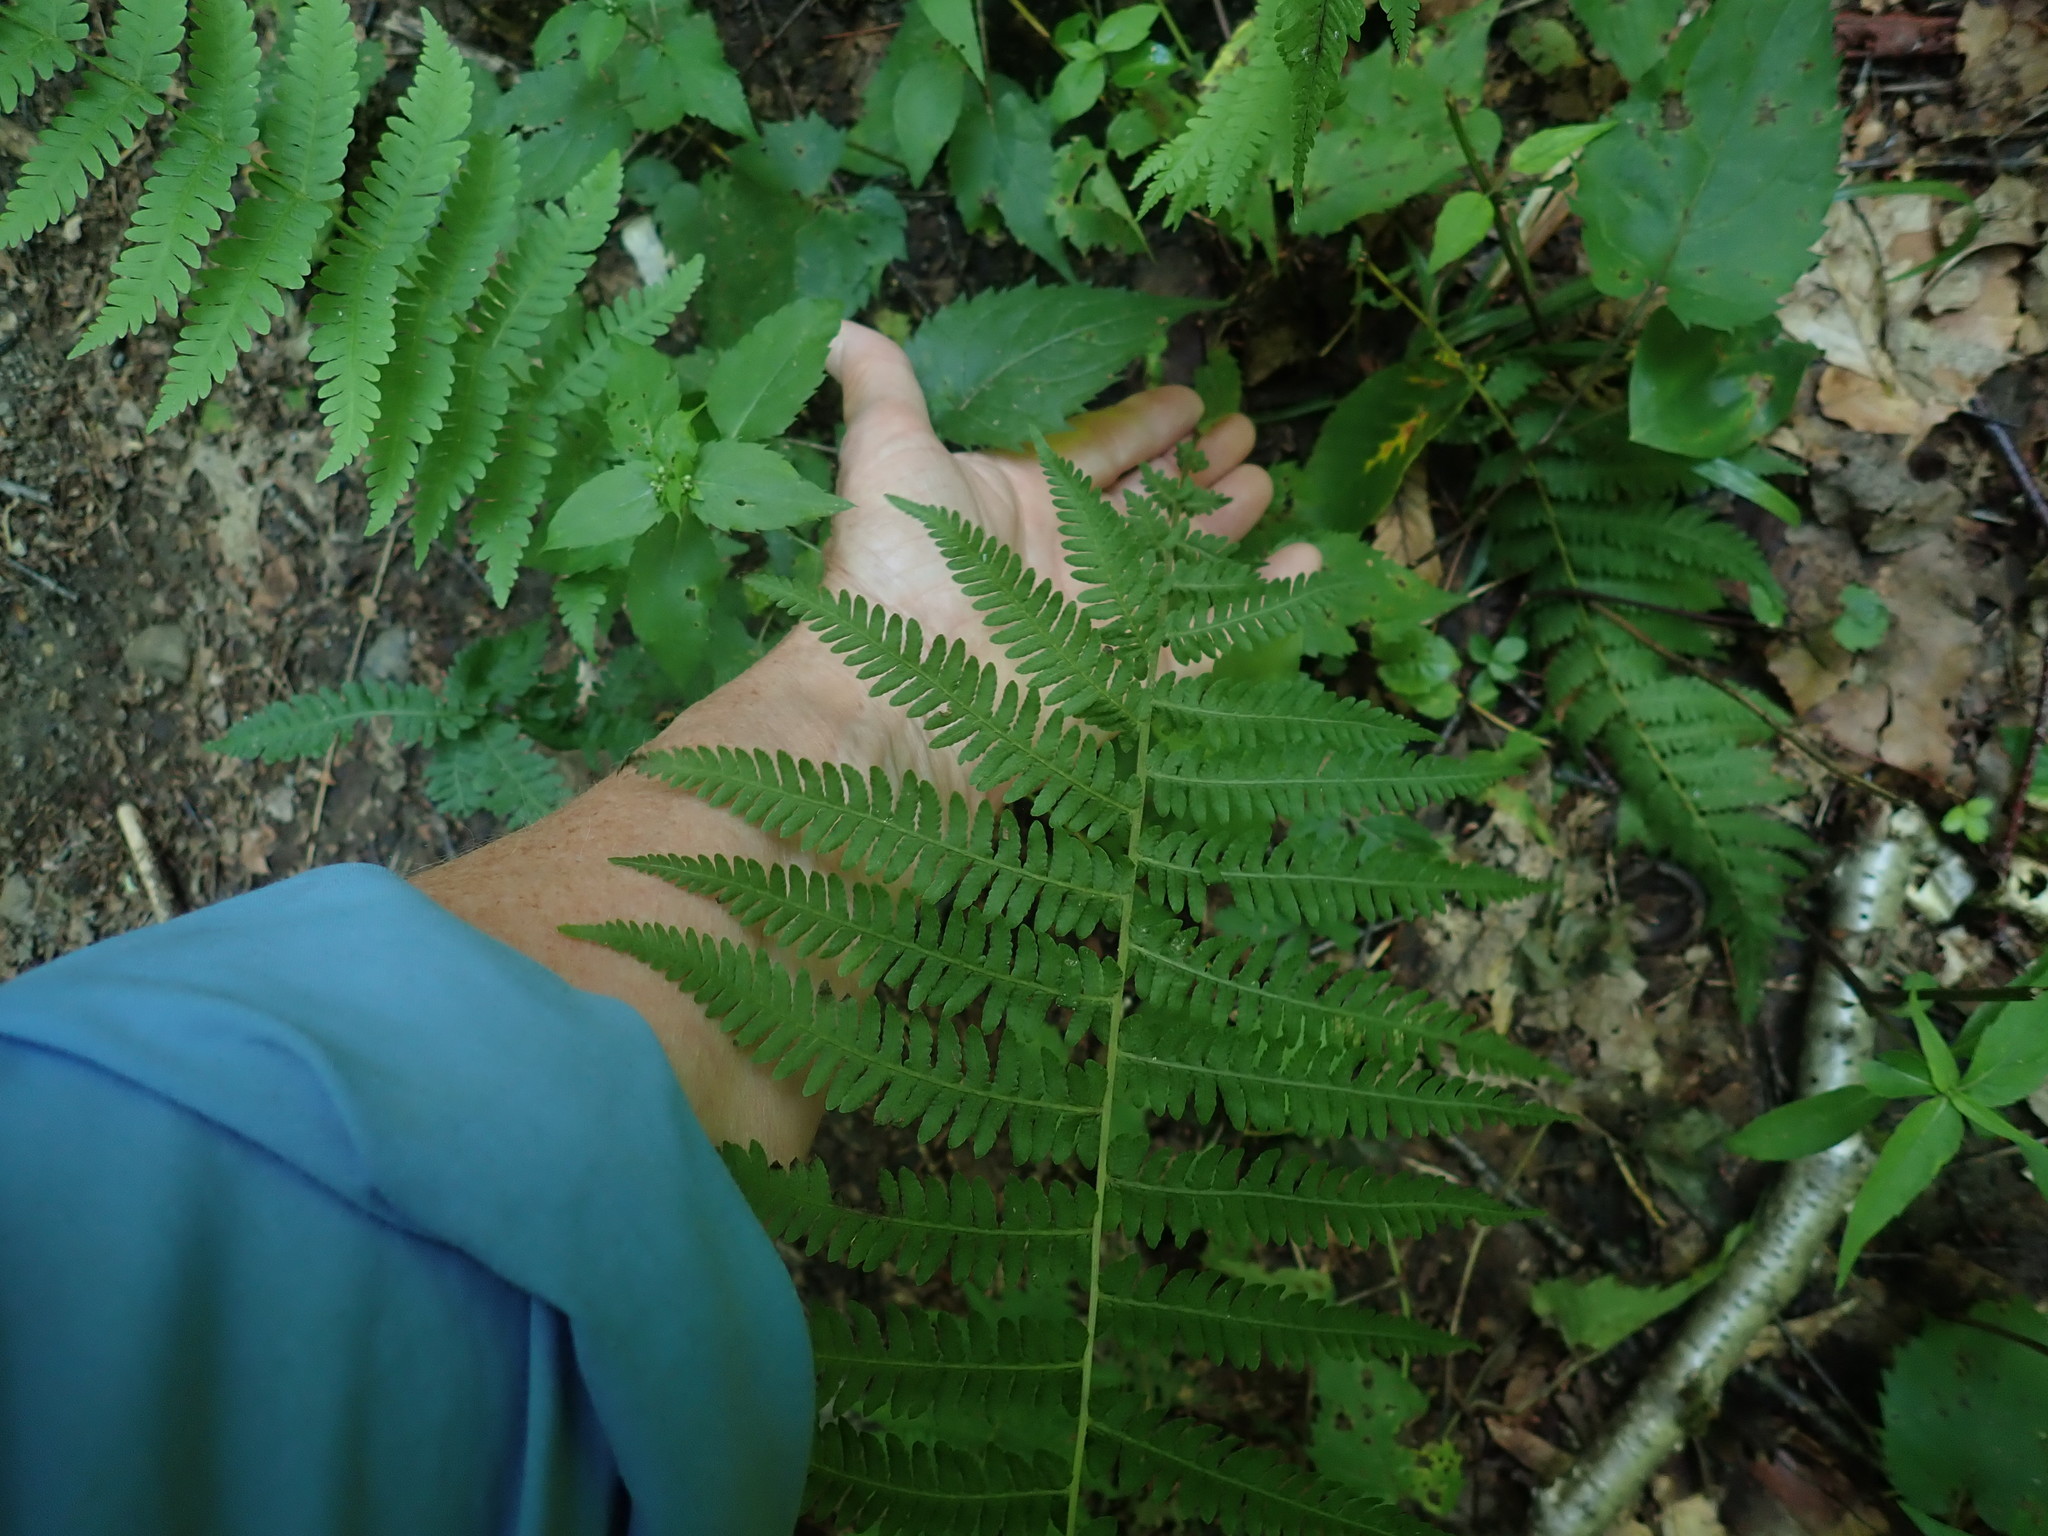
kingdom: Plantae
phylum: Tracheophyta
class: Polypodiopsida
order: Polypodiales
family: Thelypteridaceae
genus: Amauropelta
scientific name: Amauropelta noveboracensis
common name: New york fern
